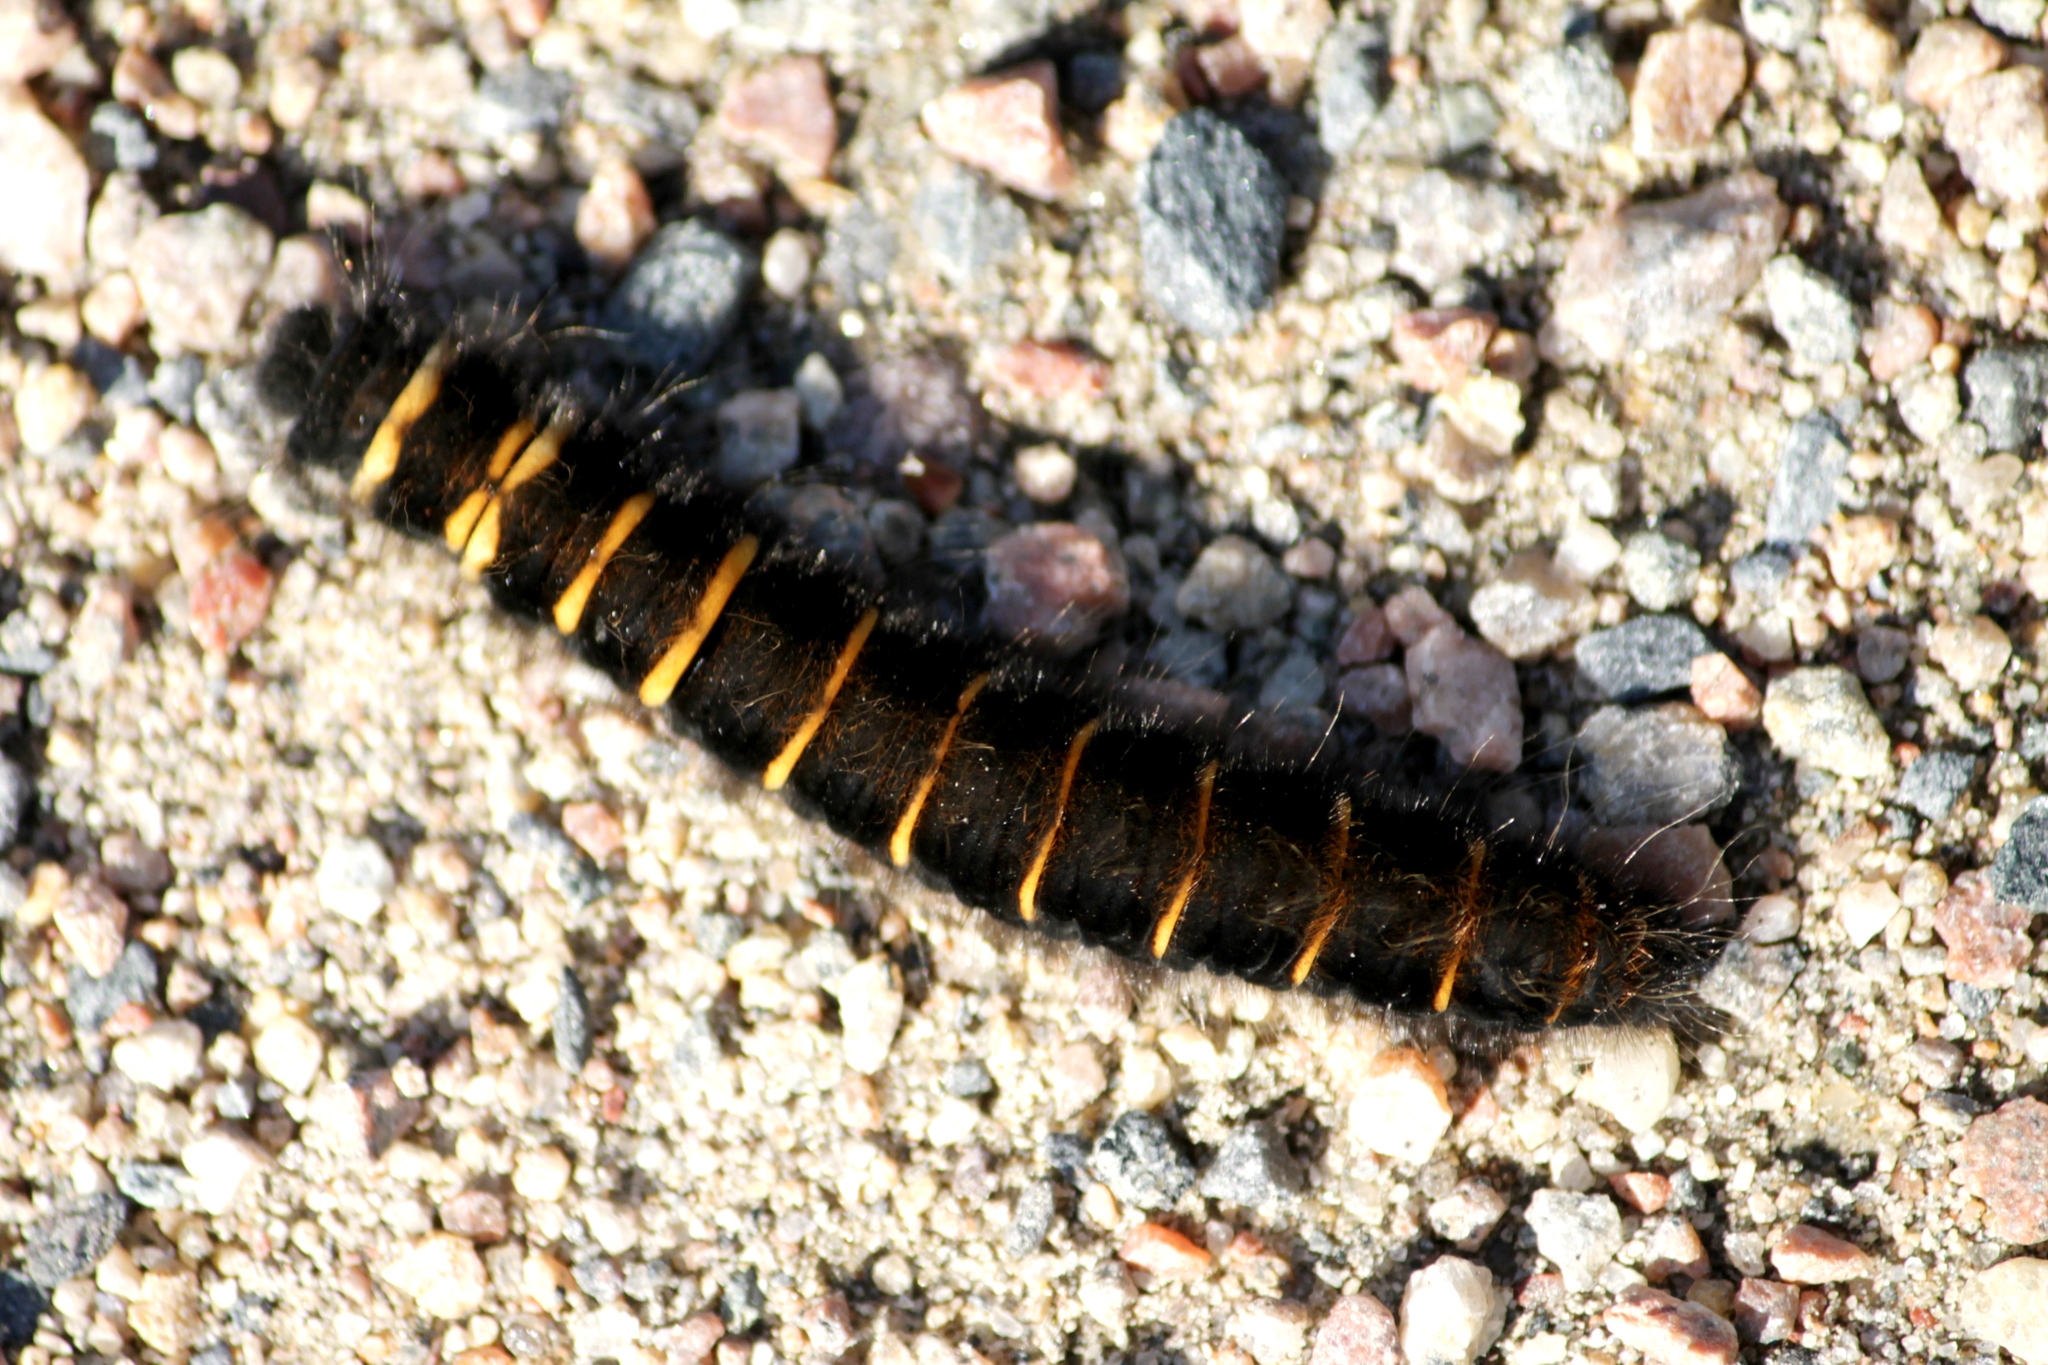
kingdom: Animalia
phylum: Arthropoda
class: Insecta
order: Lepidoptera
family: Lasiocampidae
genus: Macrothylacia
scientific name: Macrothylacia rubi
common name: Fox moth
